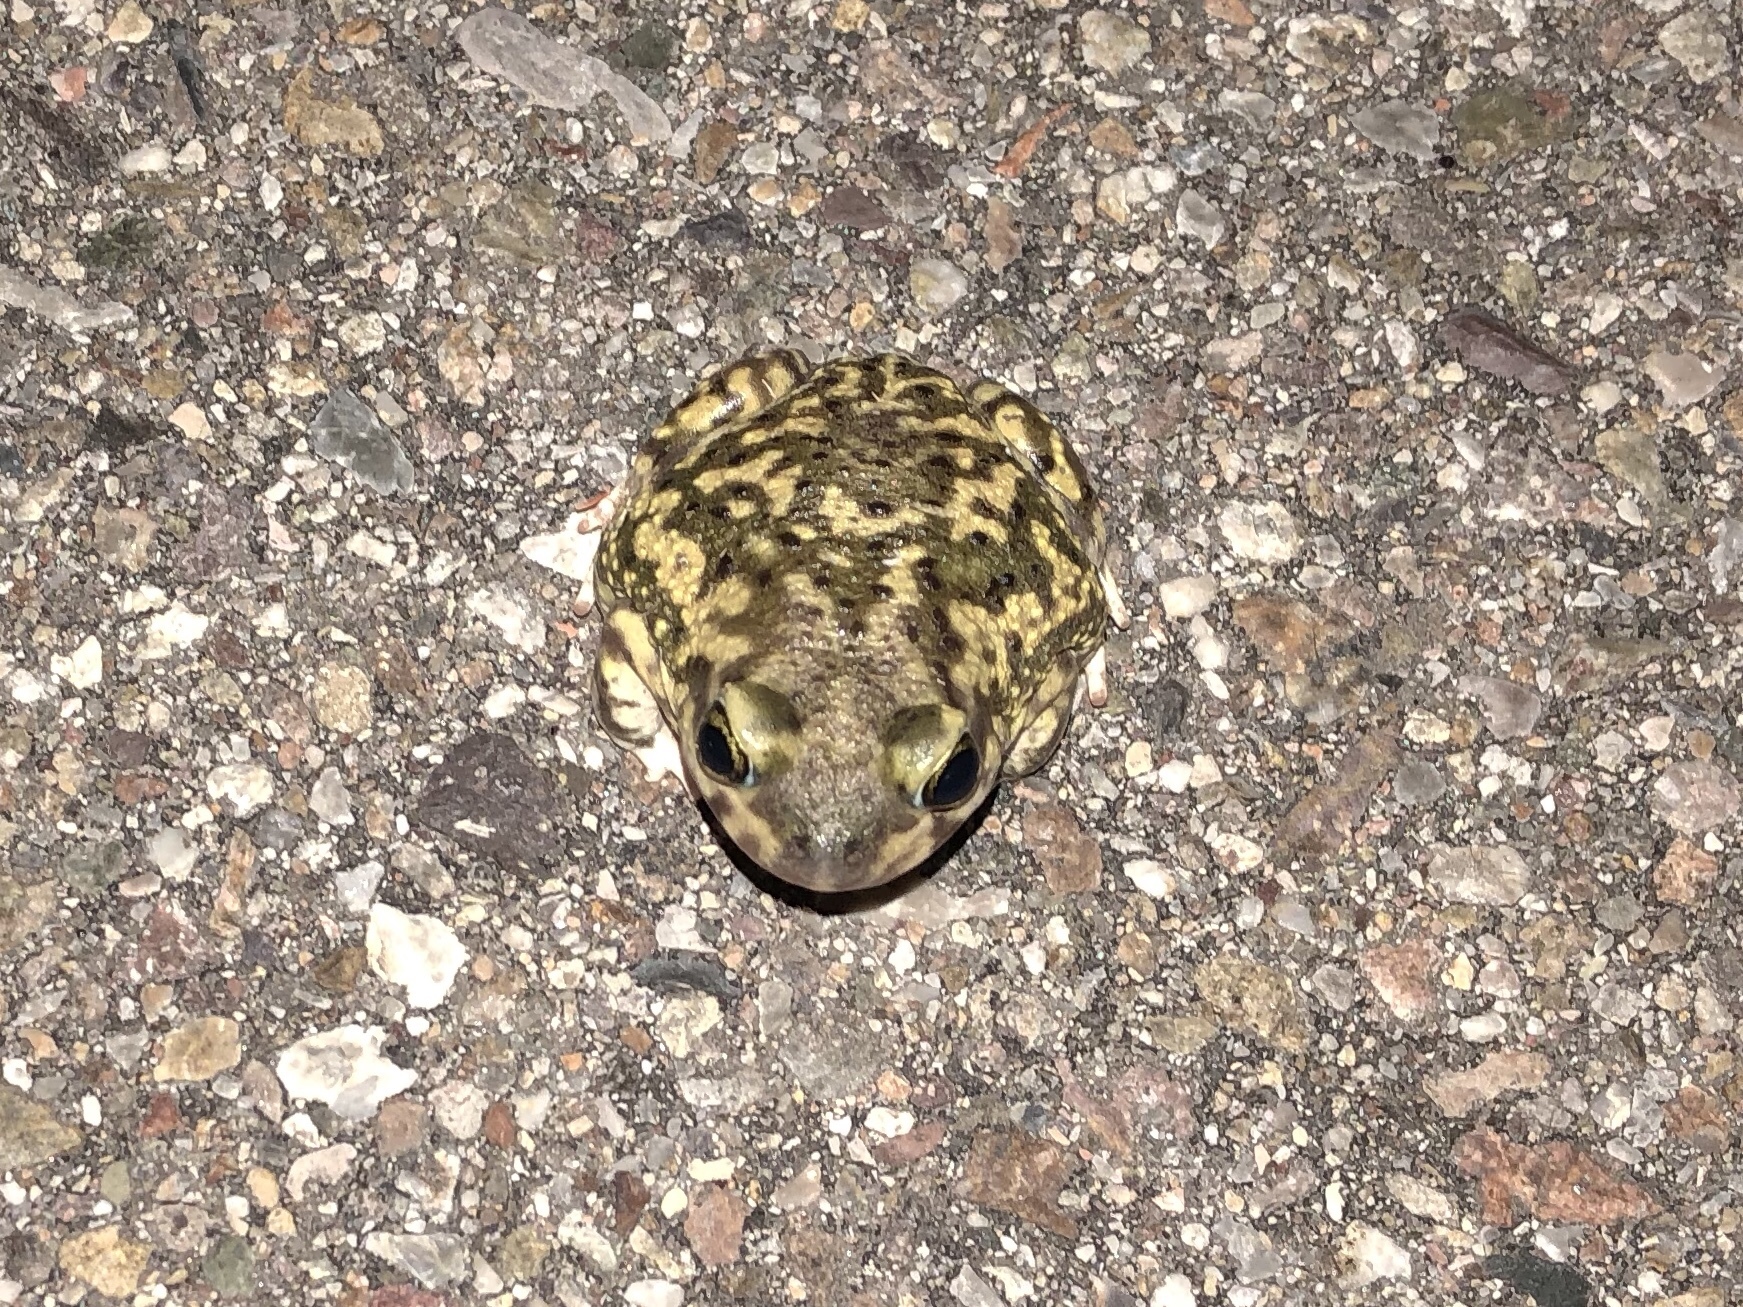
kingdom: Animalia
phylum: Chordata
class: Amphibia
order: Anura
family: Scaphiopodidae
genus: Scaphiopus
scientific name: Scaphiopus couchii
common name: Couch's spadefoot toad
